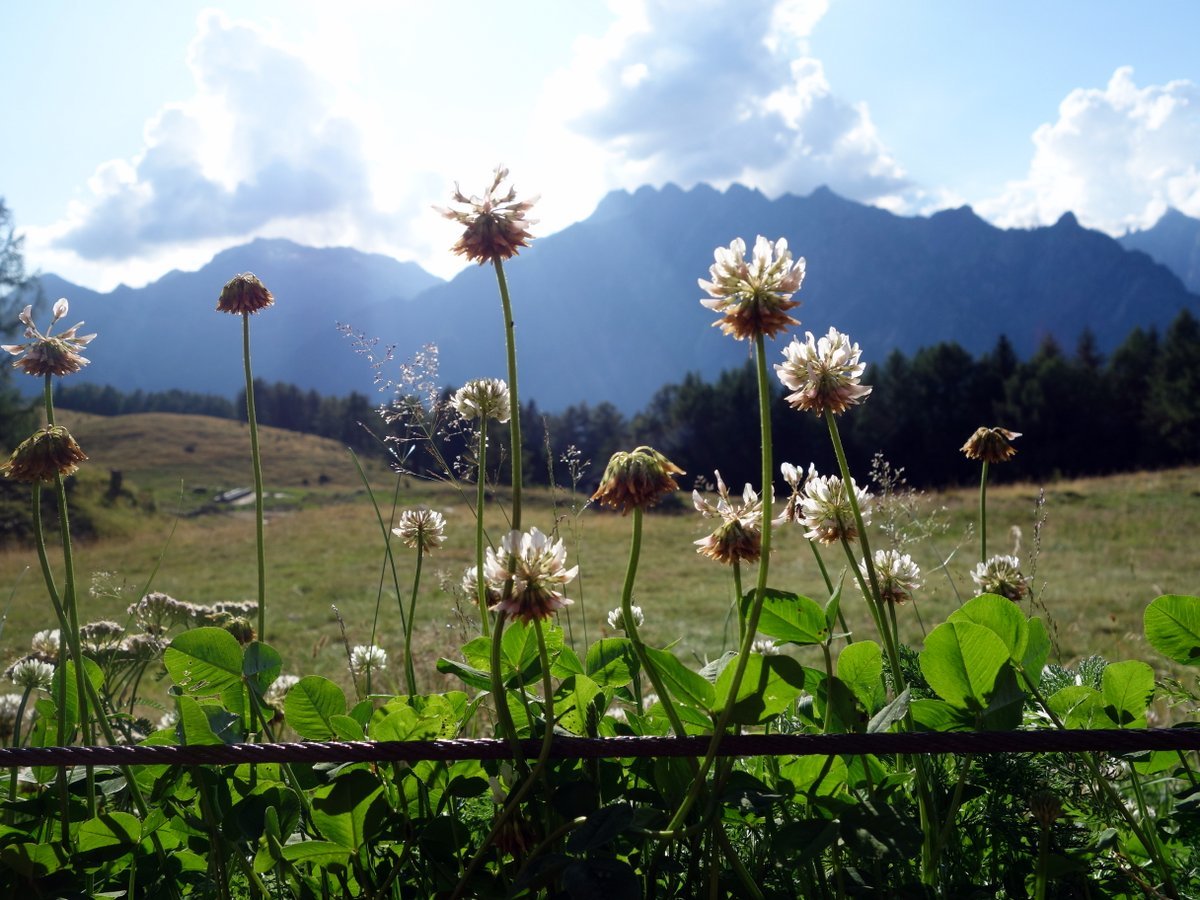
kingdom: Plantae
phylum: Tracheophyta
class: Magnoliopsida
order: Fabales
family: Fabaceae
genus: Trifolium
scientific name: Trifolium repens
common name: White clover
